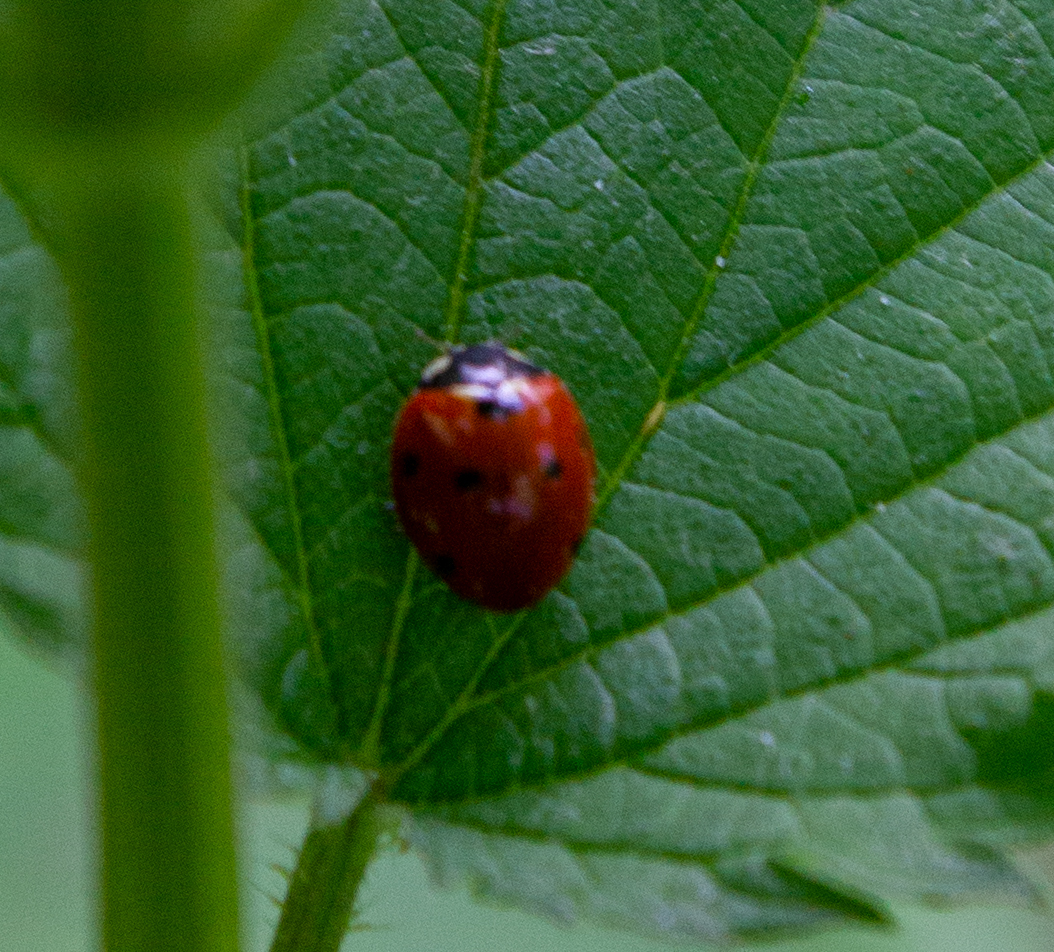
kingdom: Animalia
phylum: Arthropoda
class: Insecta
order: Coleoptera
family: Coccinellidae
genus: Coccinella
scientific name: Coccinella septempunctata
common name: Sevenspotted lady beetle
